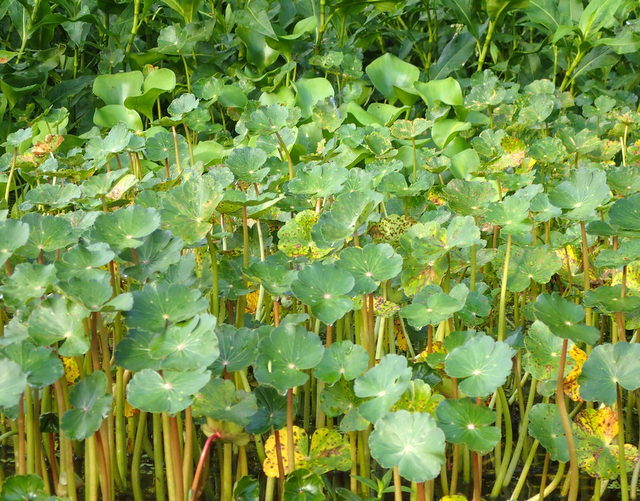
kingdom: Plantae
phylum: Tracheophyta
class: Magnoliopsida
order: Apiales
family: Araliaceae
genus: Hydrocotyle
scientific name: Hydrocotyle ranunculoides
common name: Floating pennywort
